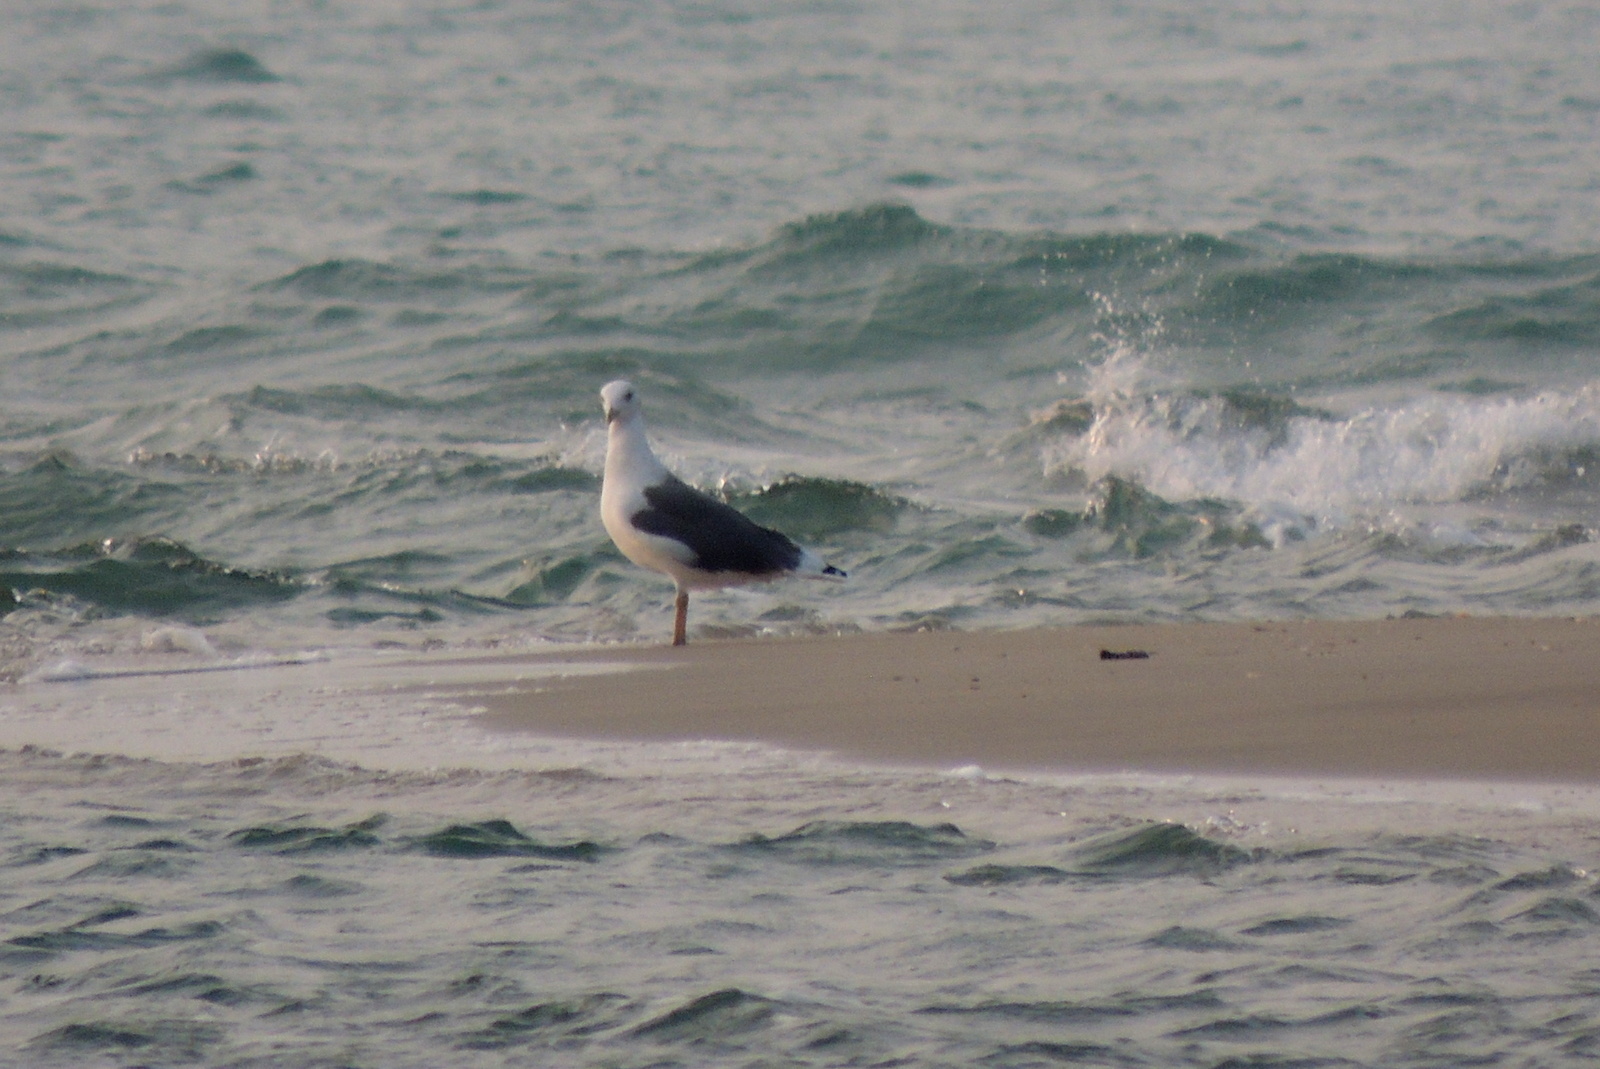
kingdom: Animalia
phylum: Chordata
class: Aves
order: Charadriiformes
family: Laridae
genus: Larus
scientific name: Larus fuscus
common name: Lesser black-backed gull
